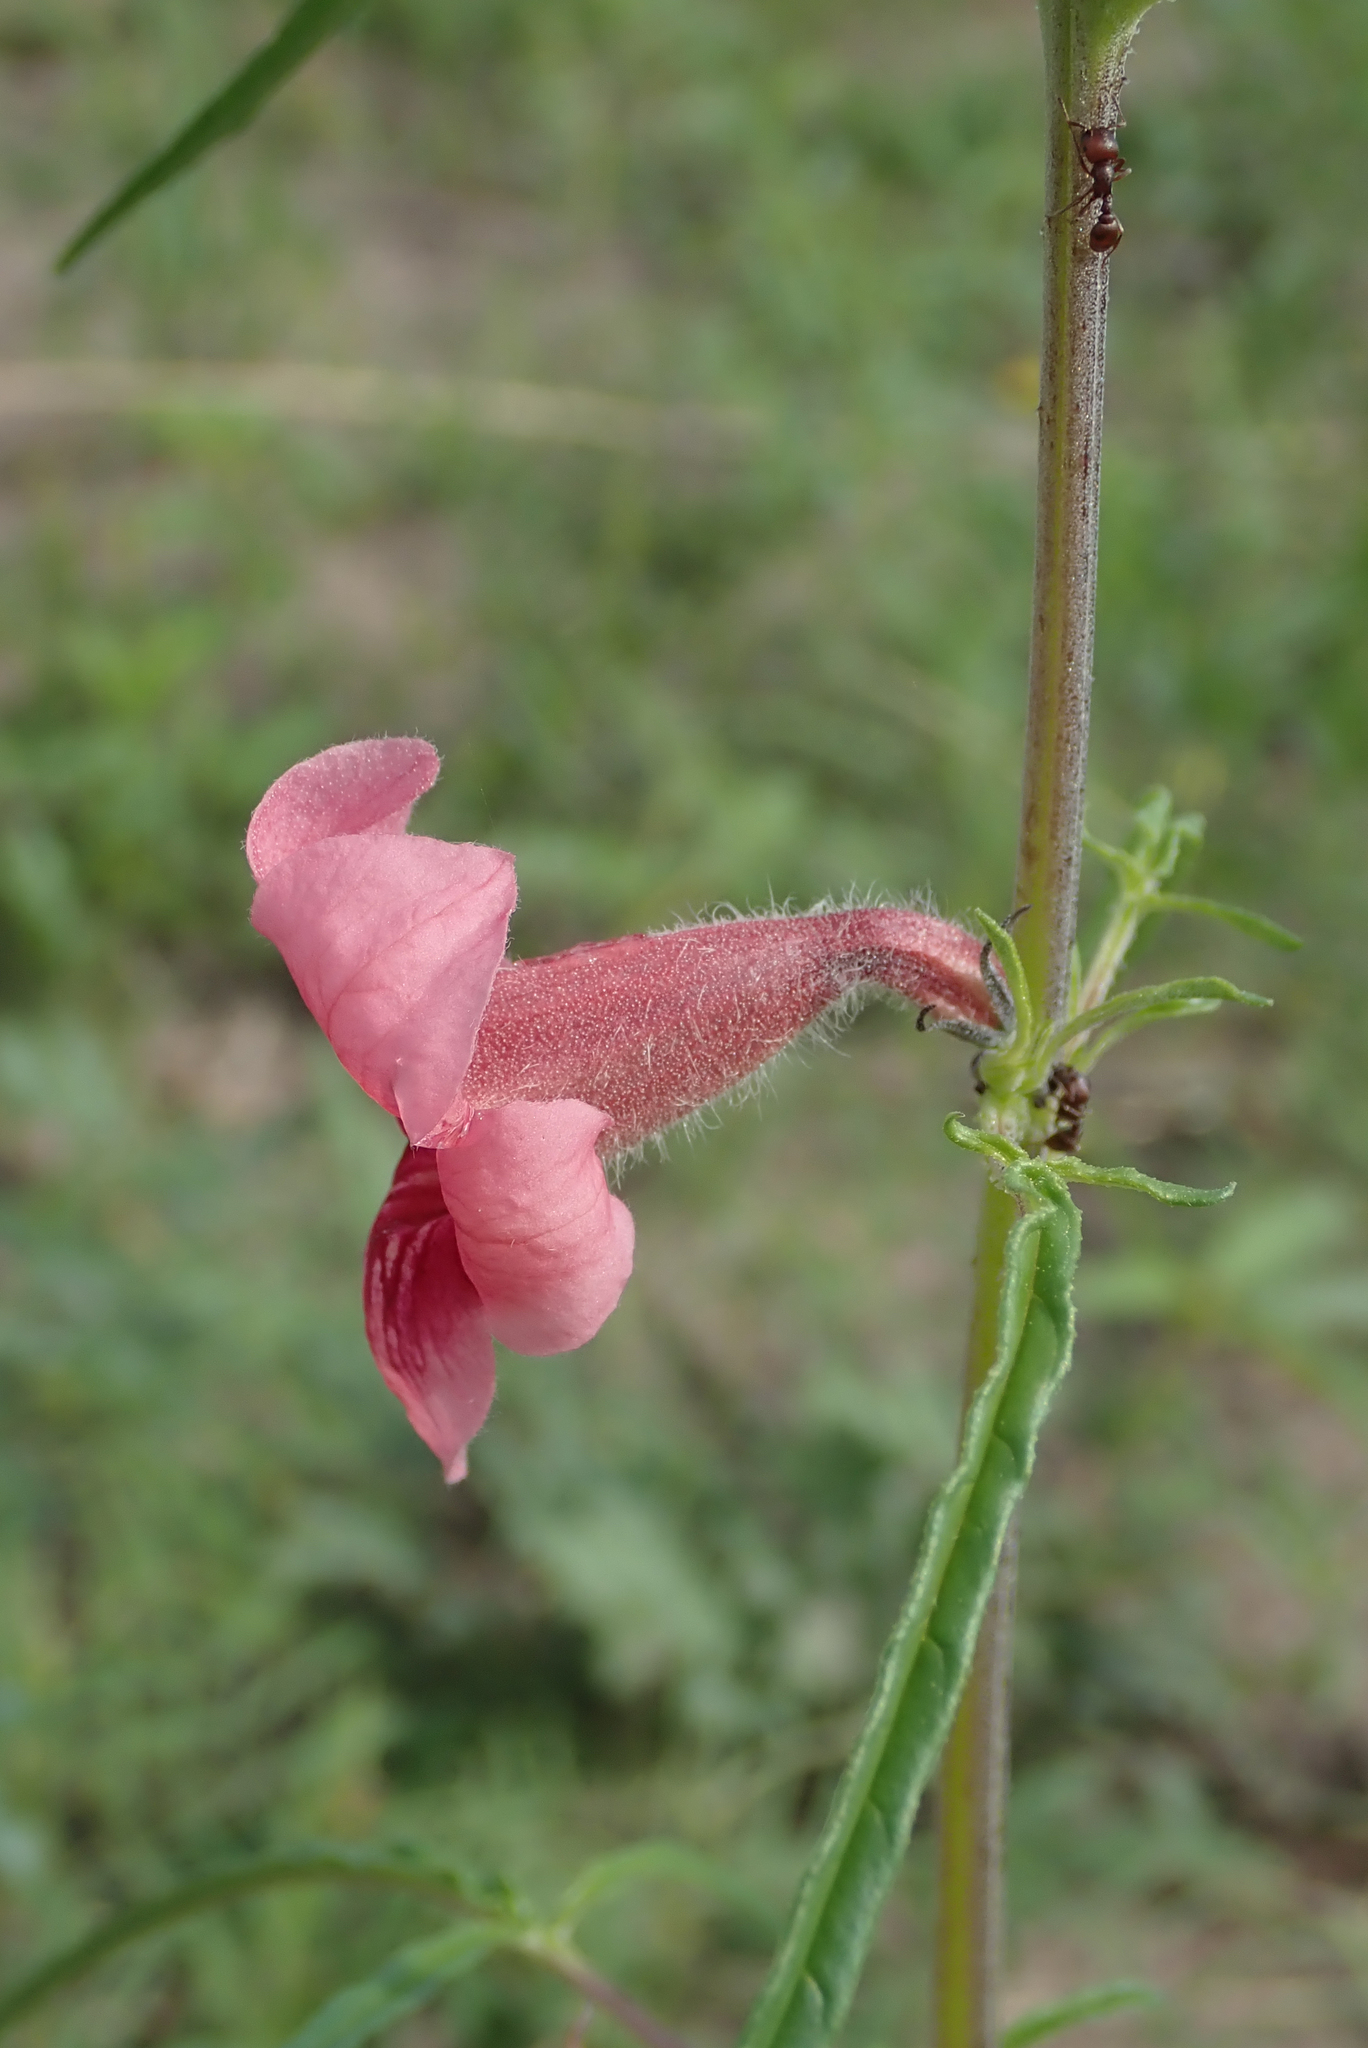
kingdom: Plantae
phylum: Tracheophyta
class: Magnoliopsida
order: Lamiales
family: Pedaliaceae
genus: Sesamum
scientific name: Sesamum triphyllum
